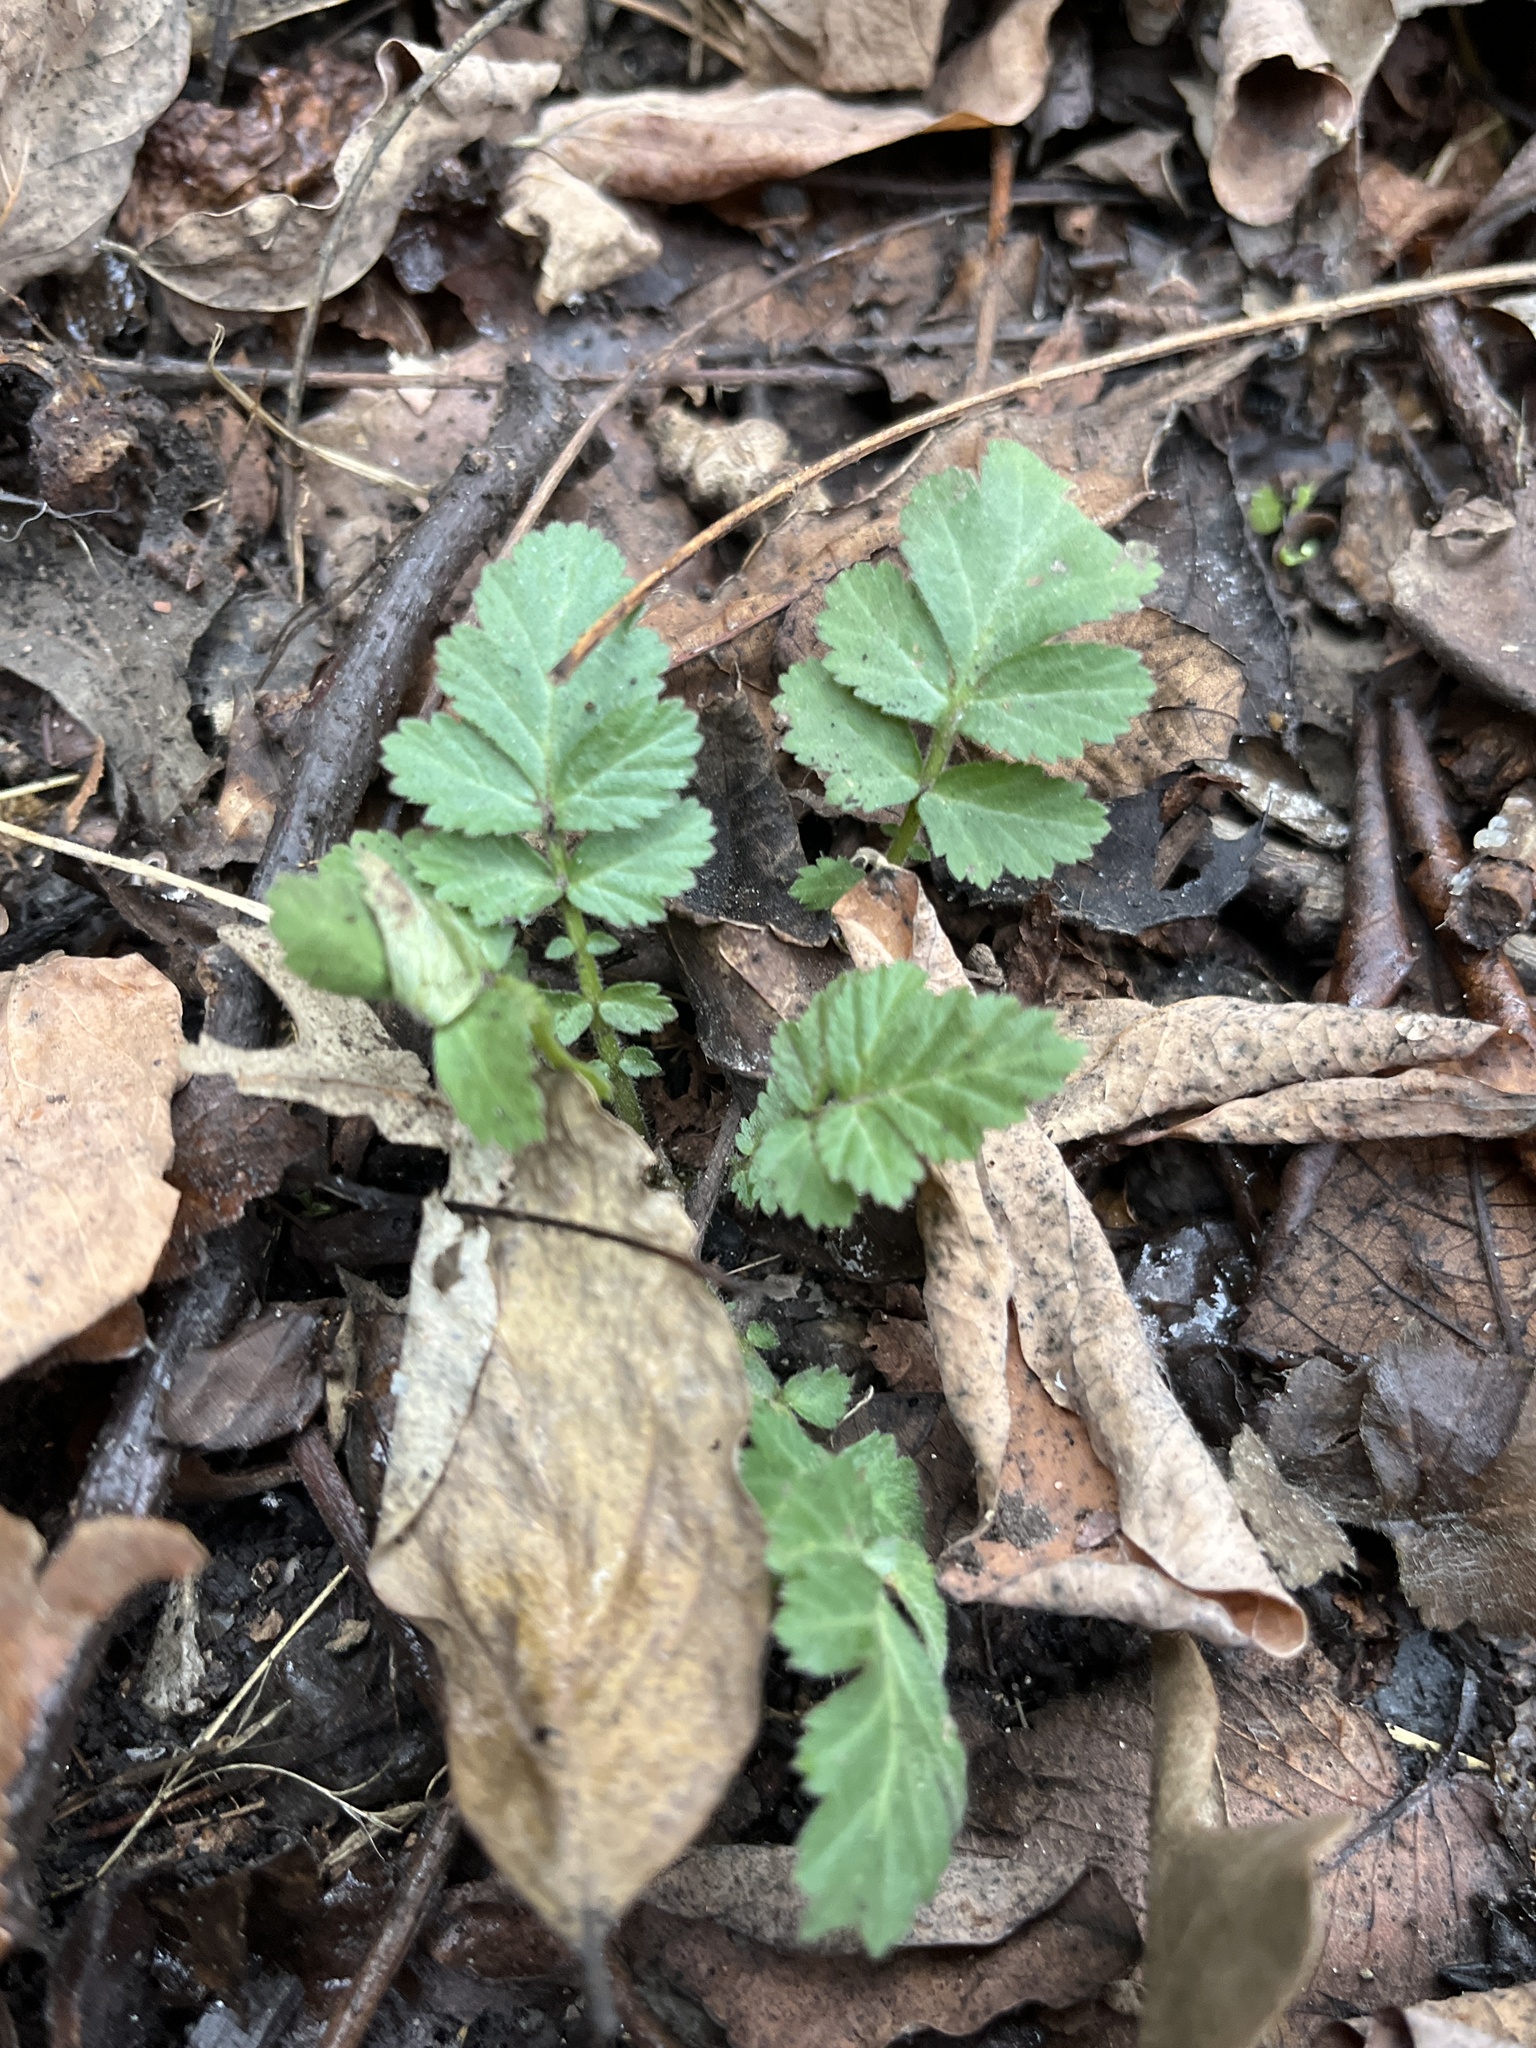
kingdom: Plantae
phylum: Tracheophyta
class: Magnoliopsida
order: Rosales
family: Rosaceae
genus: Geum
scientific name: Geum canadense
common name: White avens
